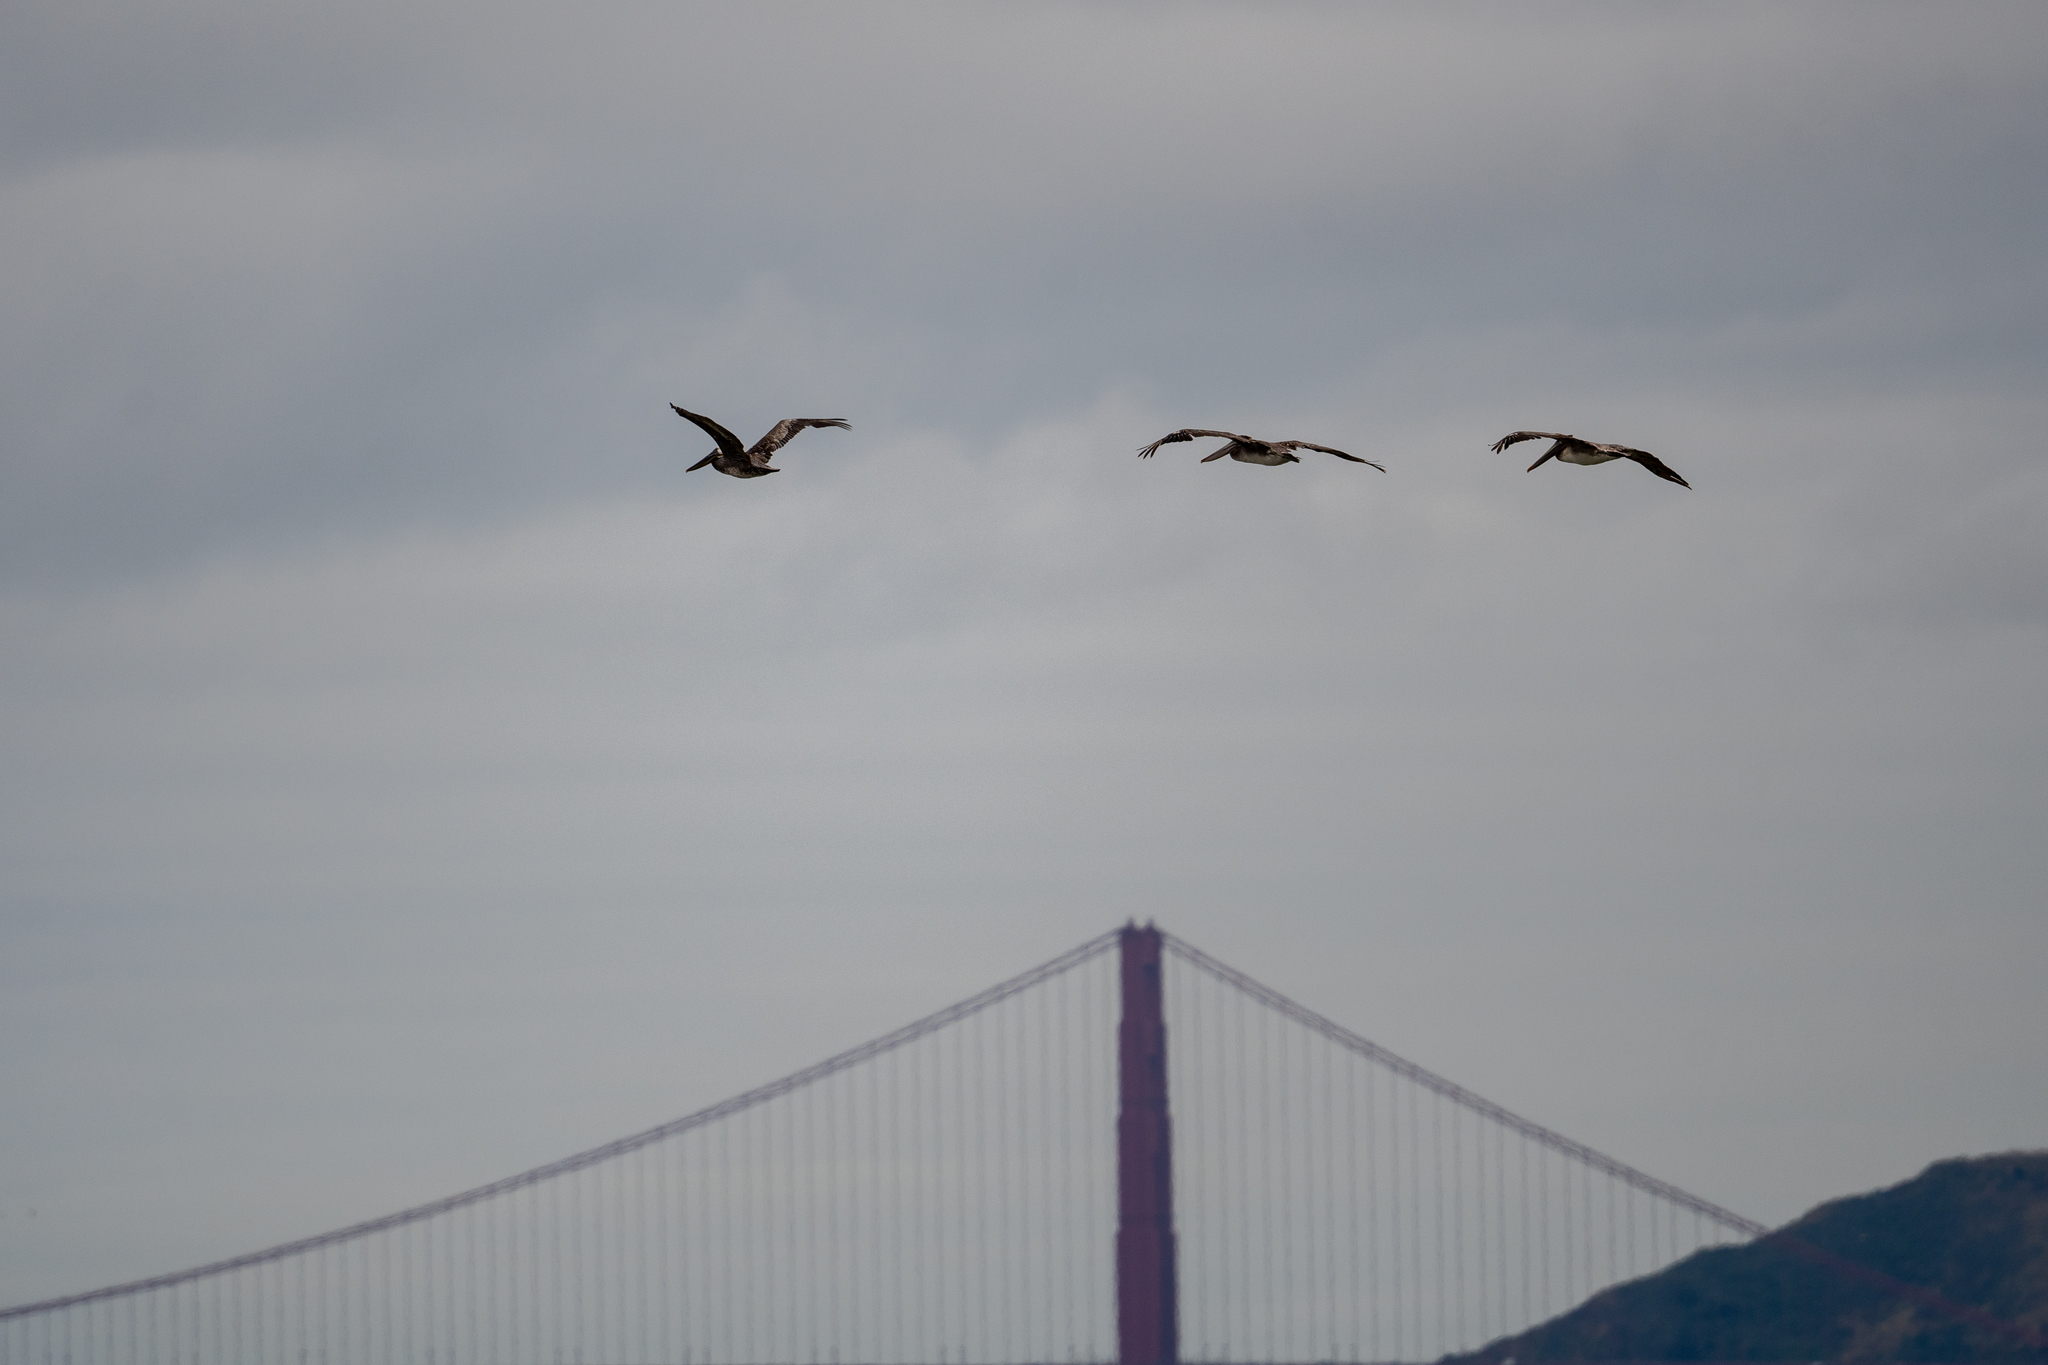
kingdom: Animalia
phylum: Chordata
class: Aves
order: Pelecaniformes
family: Pelecanidae
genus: Pelecanus
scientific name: Pelecanus occidentalis
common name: Brown pelican
